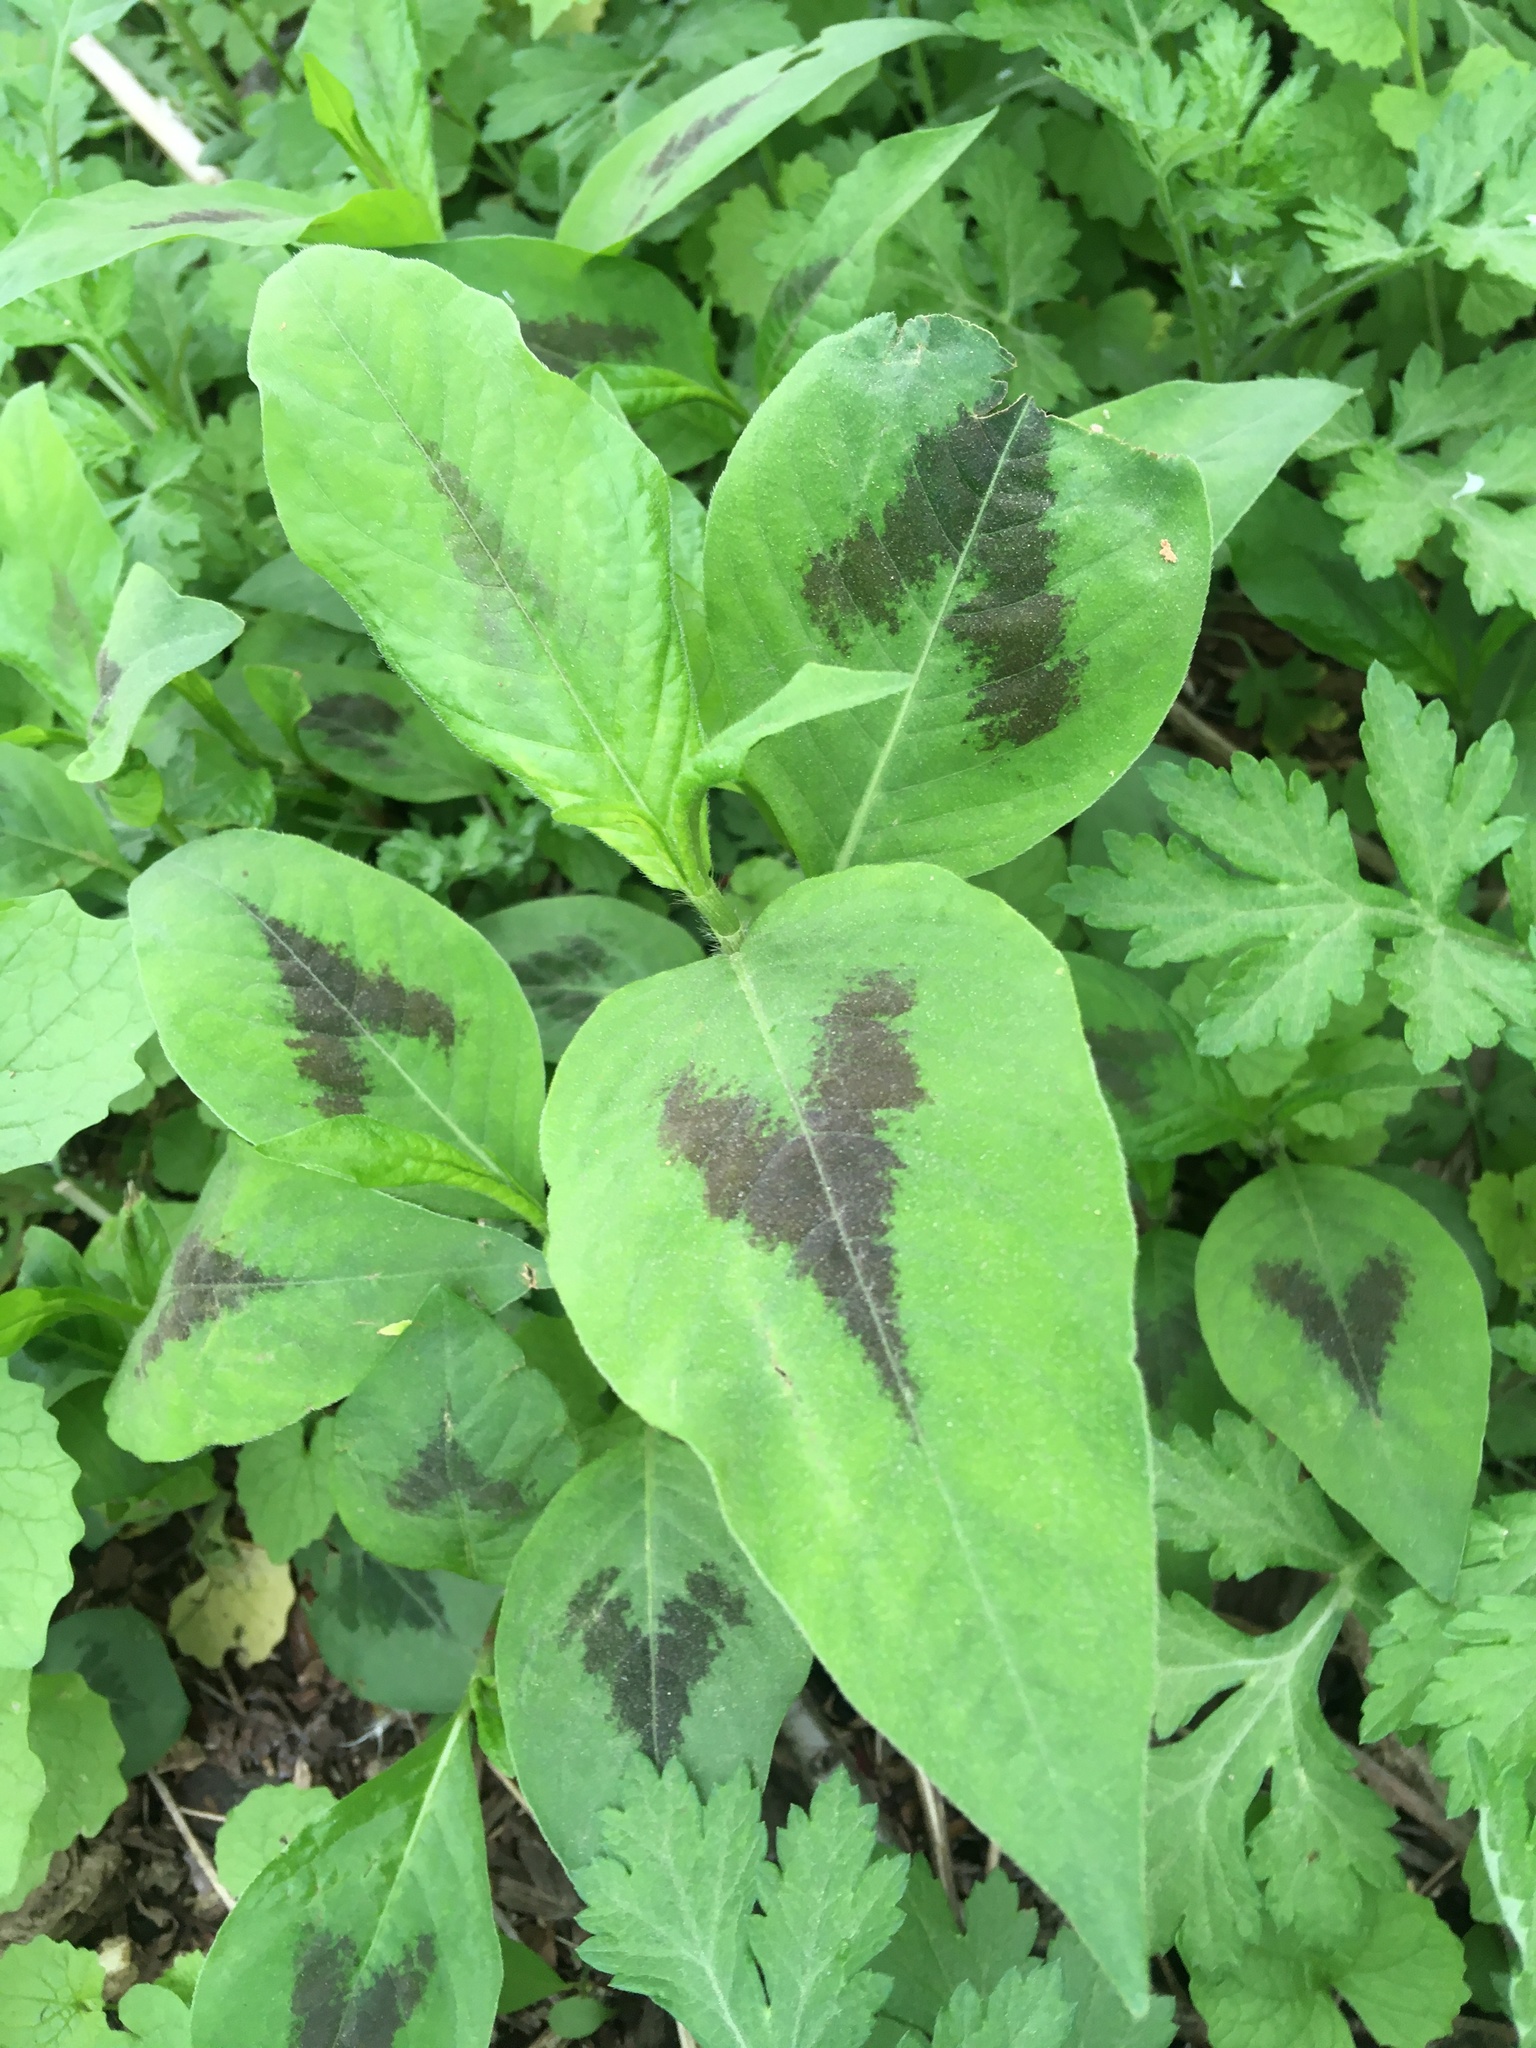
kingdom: Plantae
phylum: Tracheophyta
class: Magnoliopsida
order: Caryophyllales
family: Polygonaceae
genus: Persicaria
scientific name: Persicaria virginiana
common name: Jumpseed
